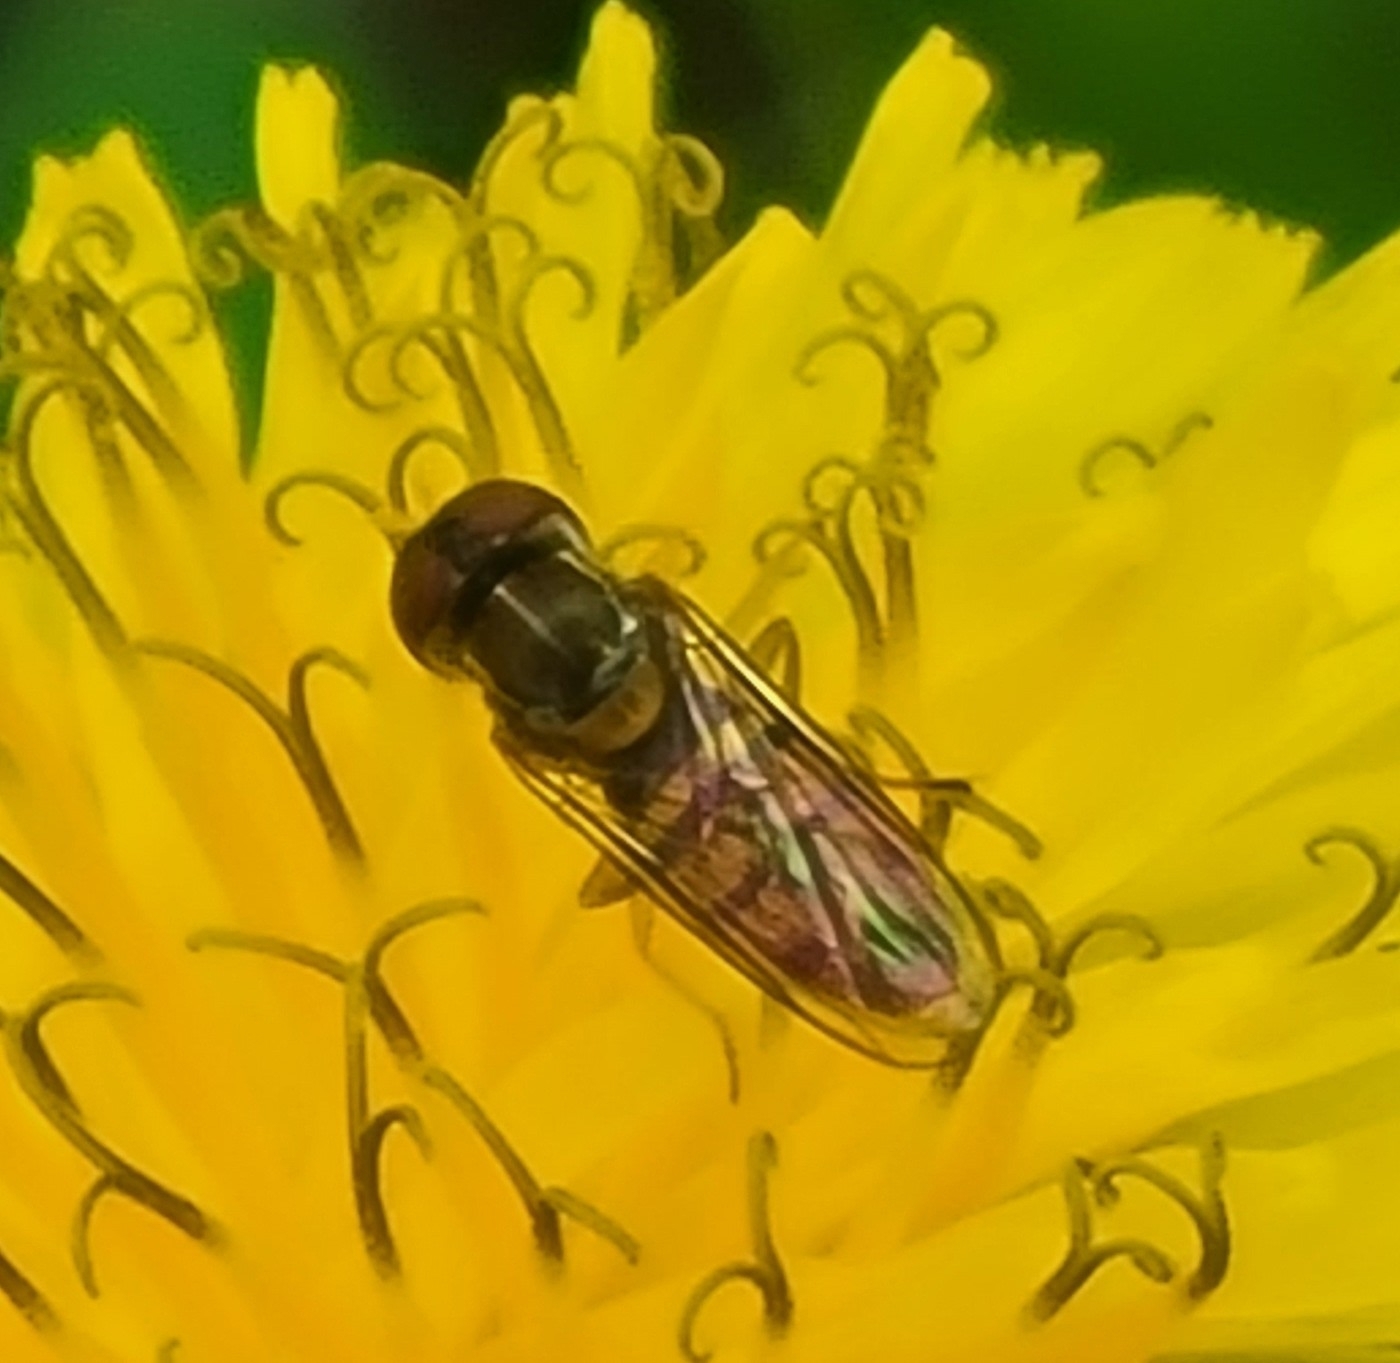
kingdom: Animalia
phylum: Arthropoda
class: Insecta
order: Diptera
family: Syrphidae
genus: Toxomerus
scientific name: Toxomerus marginatus
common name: Syrphid fly
